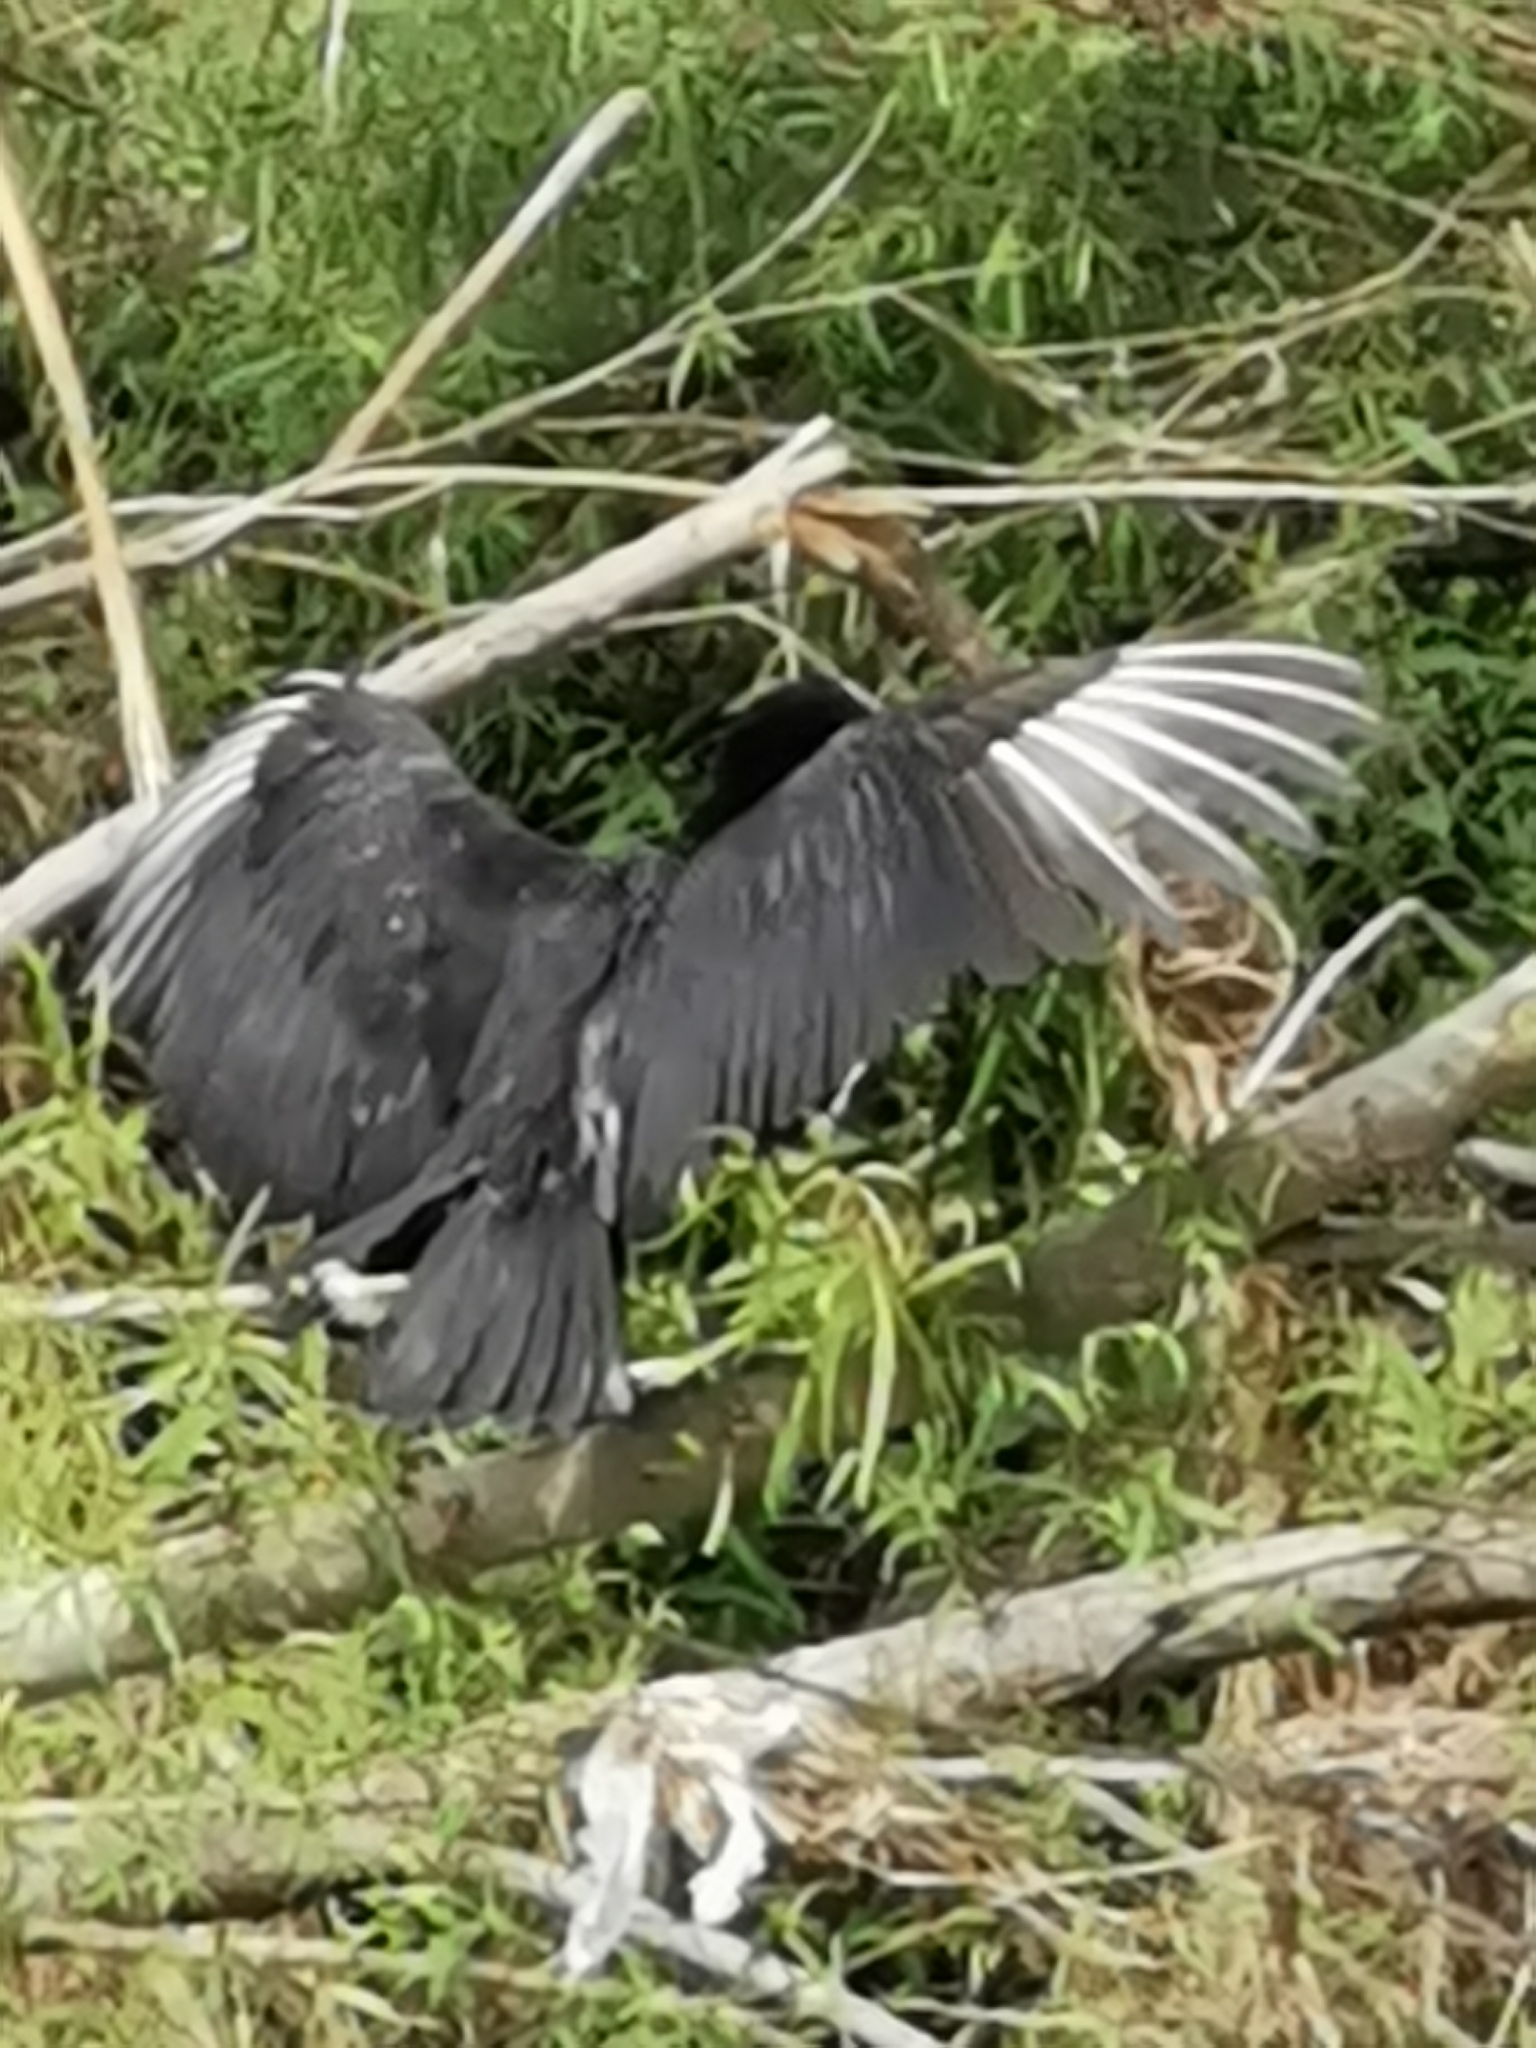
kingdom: Animalia
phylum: Chordata
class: Aves
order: Accipitriformes
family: Cathartidae
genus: Coragyps
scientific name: Coragyps atratus
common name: Black vulture
